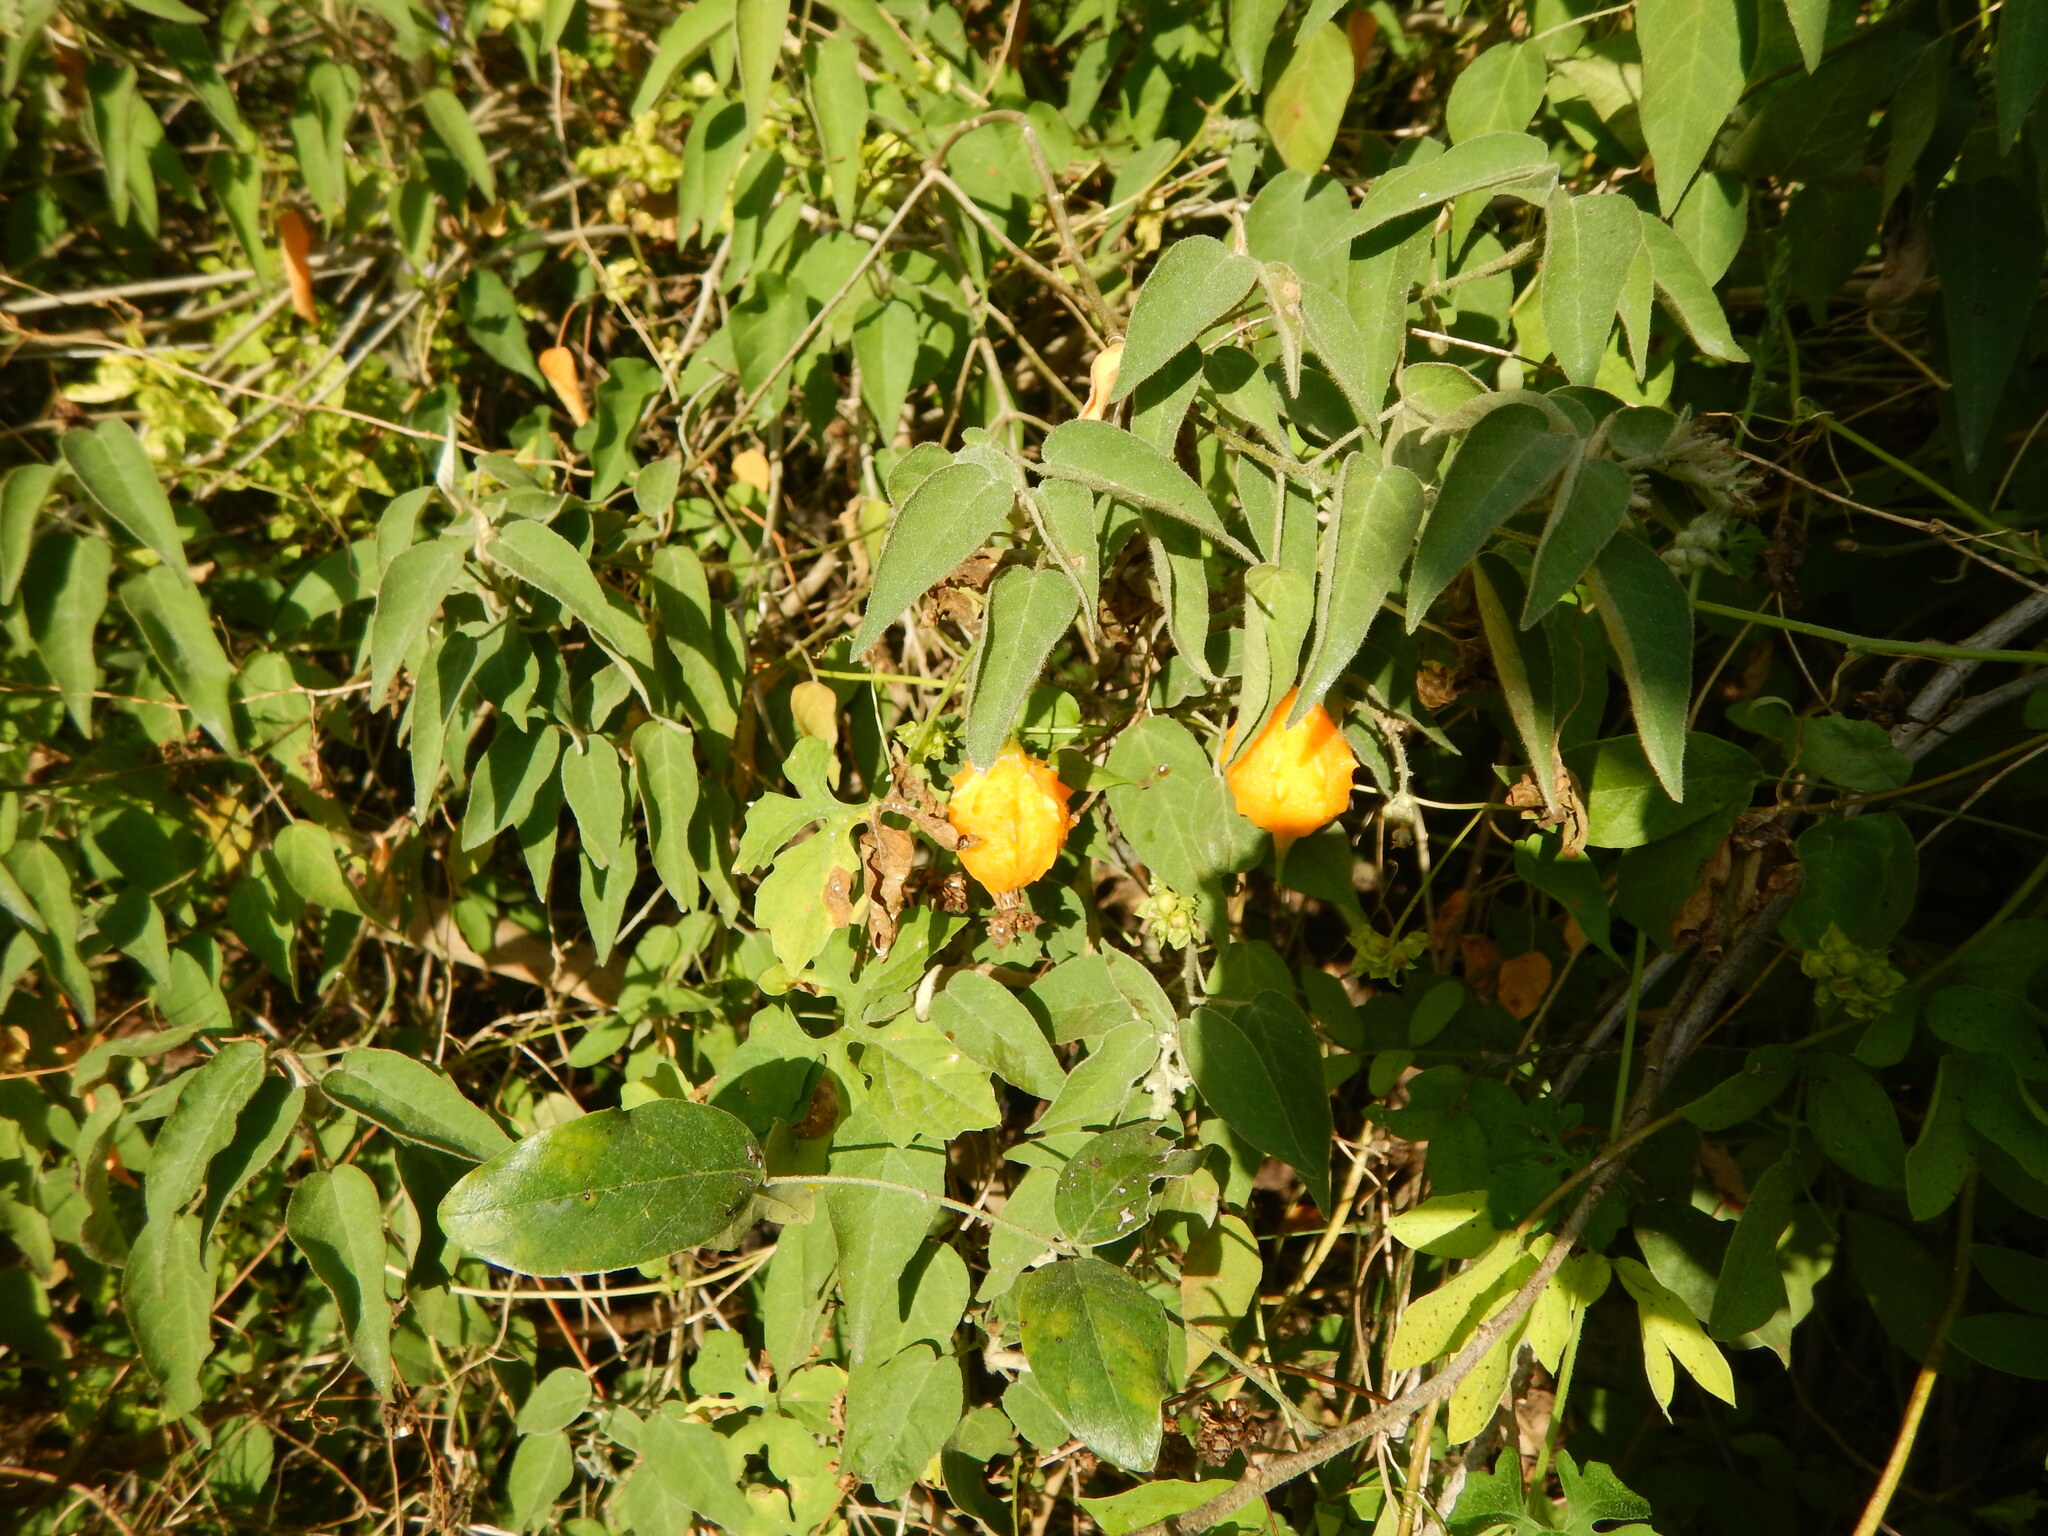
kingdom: Plantae
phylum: Tracheophyta
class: Magnoliopsida
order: Cucurbitales
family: Cucurbitaceae
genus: Momordica
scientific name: Momordica charantia
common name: Balsampear
